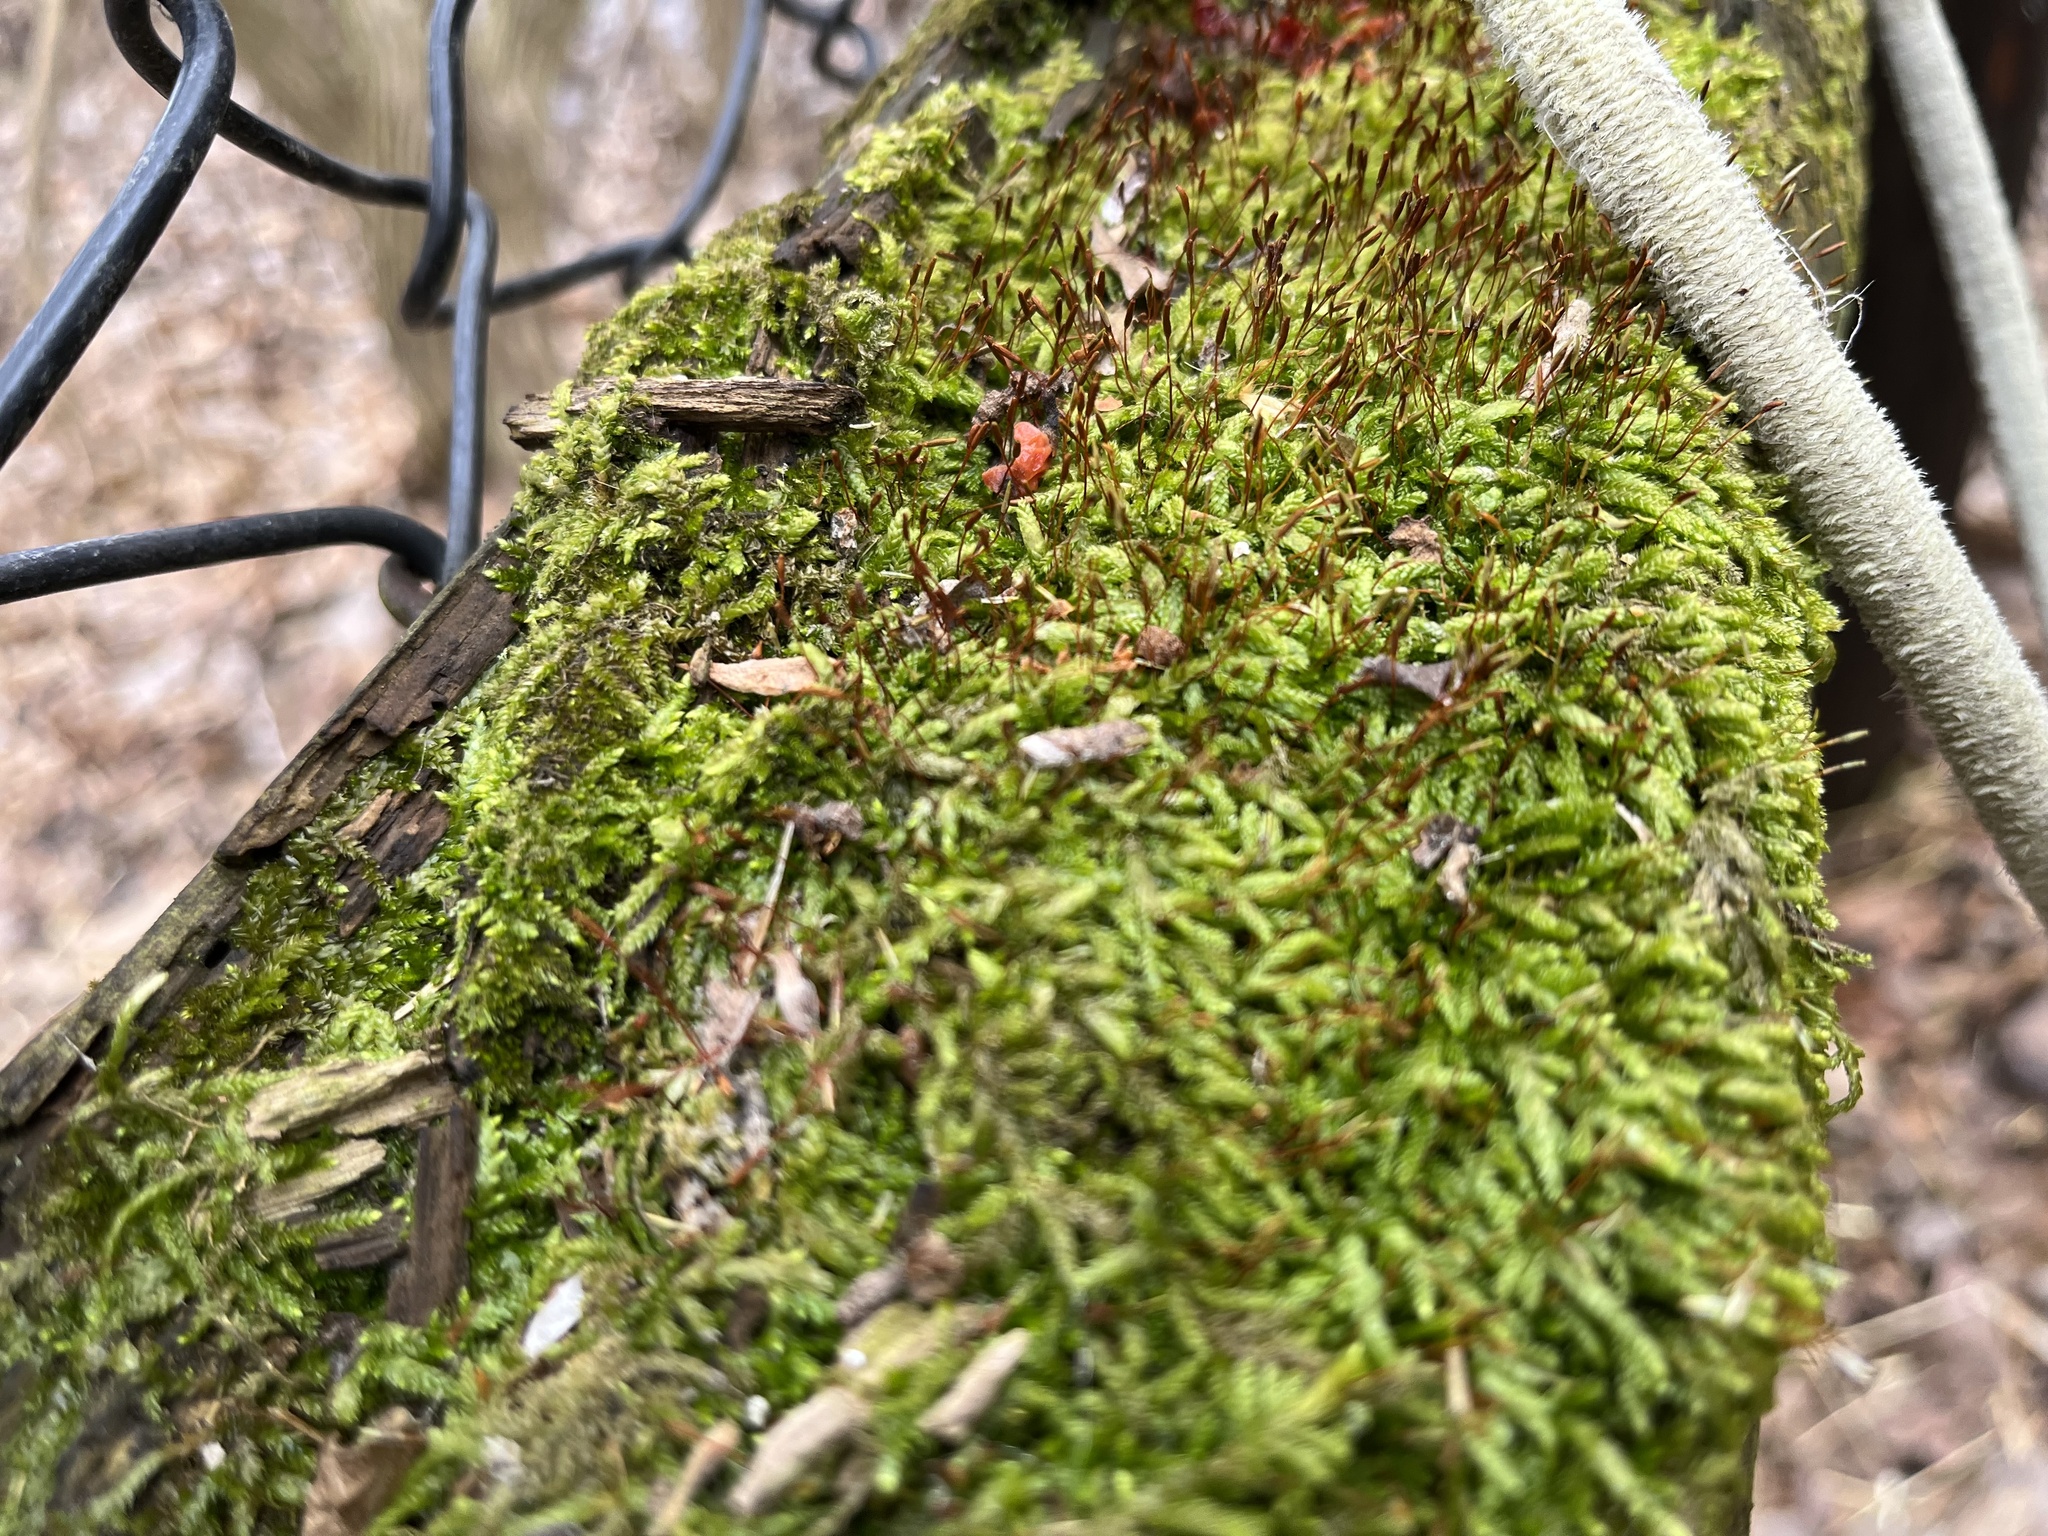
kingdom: Plantae
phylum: Bryophyta
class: Bryopsida
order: Hypnales
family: Entodontaceae
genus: Entodon
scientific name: Entodon seductrix
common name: Round-stemmed entodon moss
